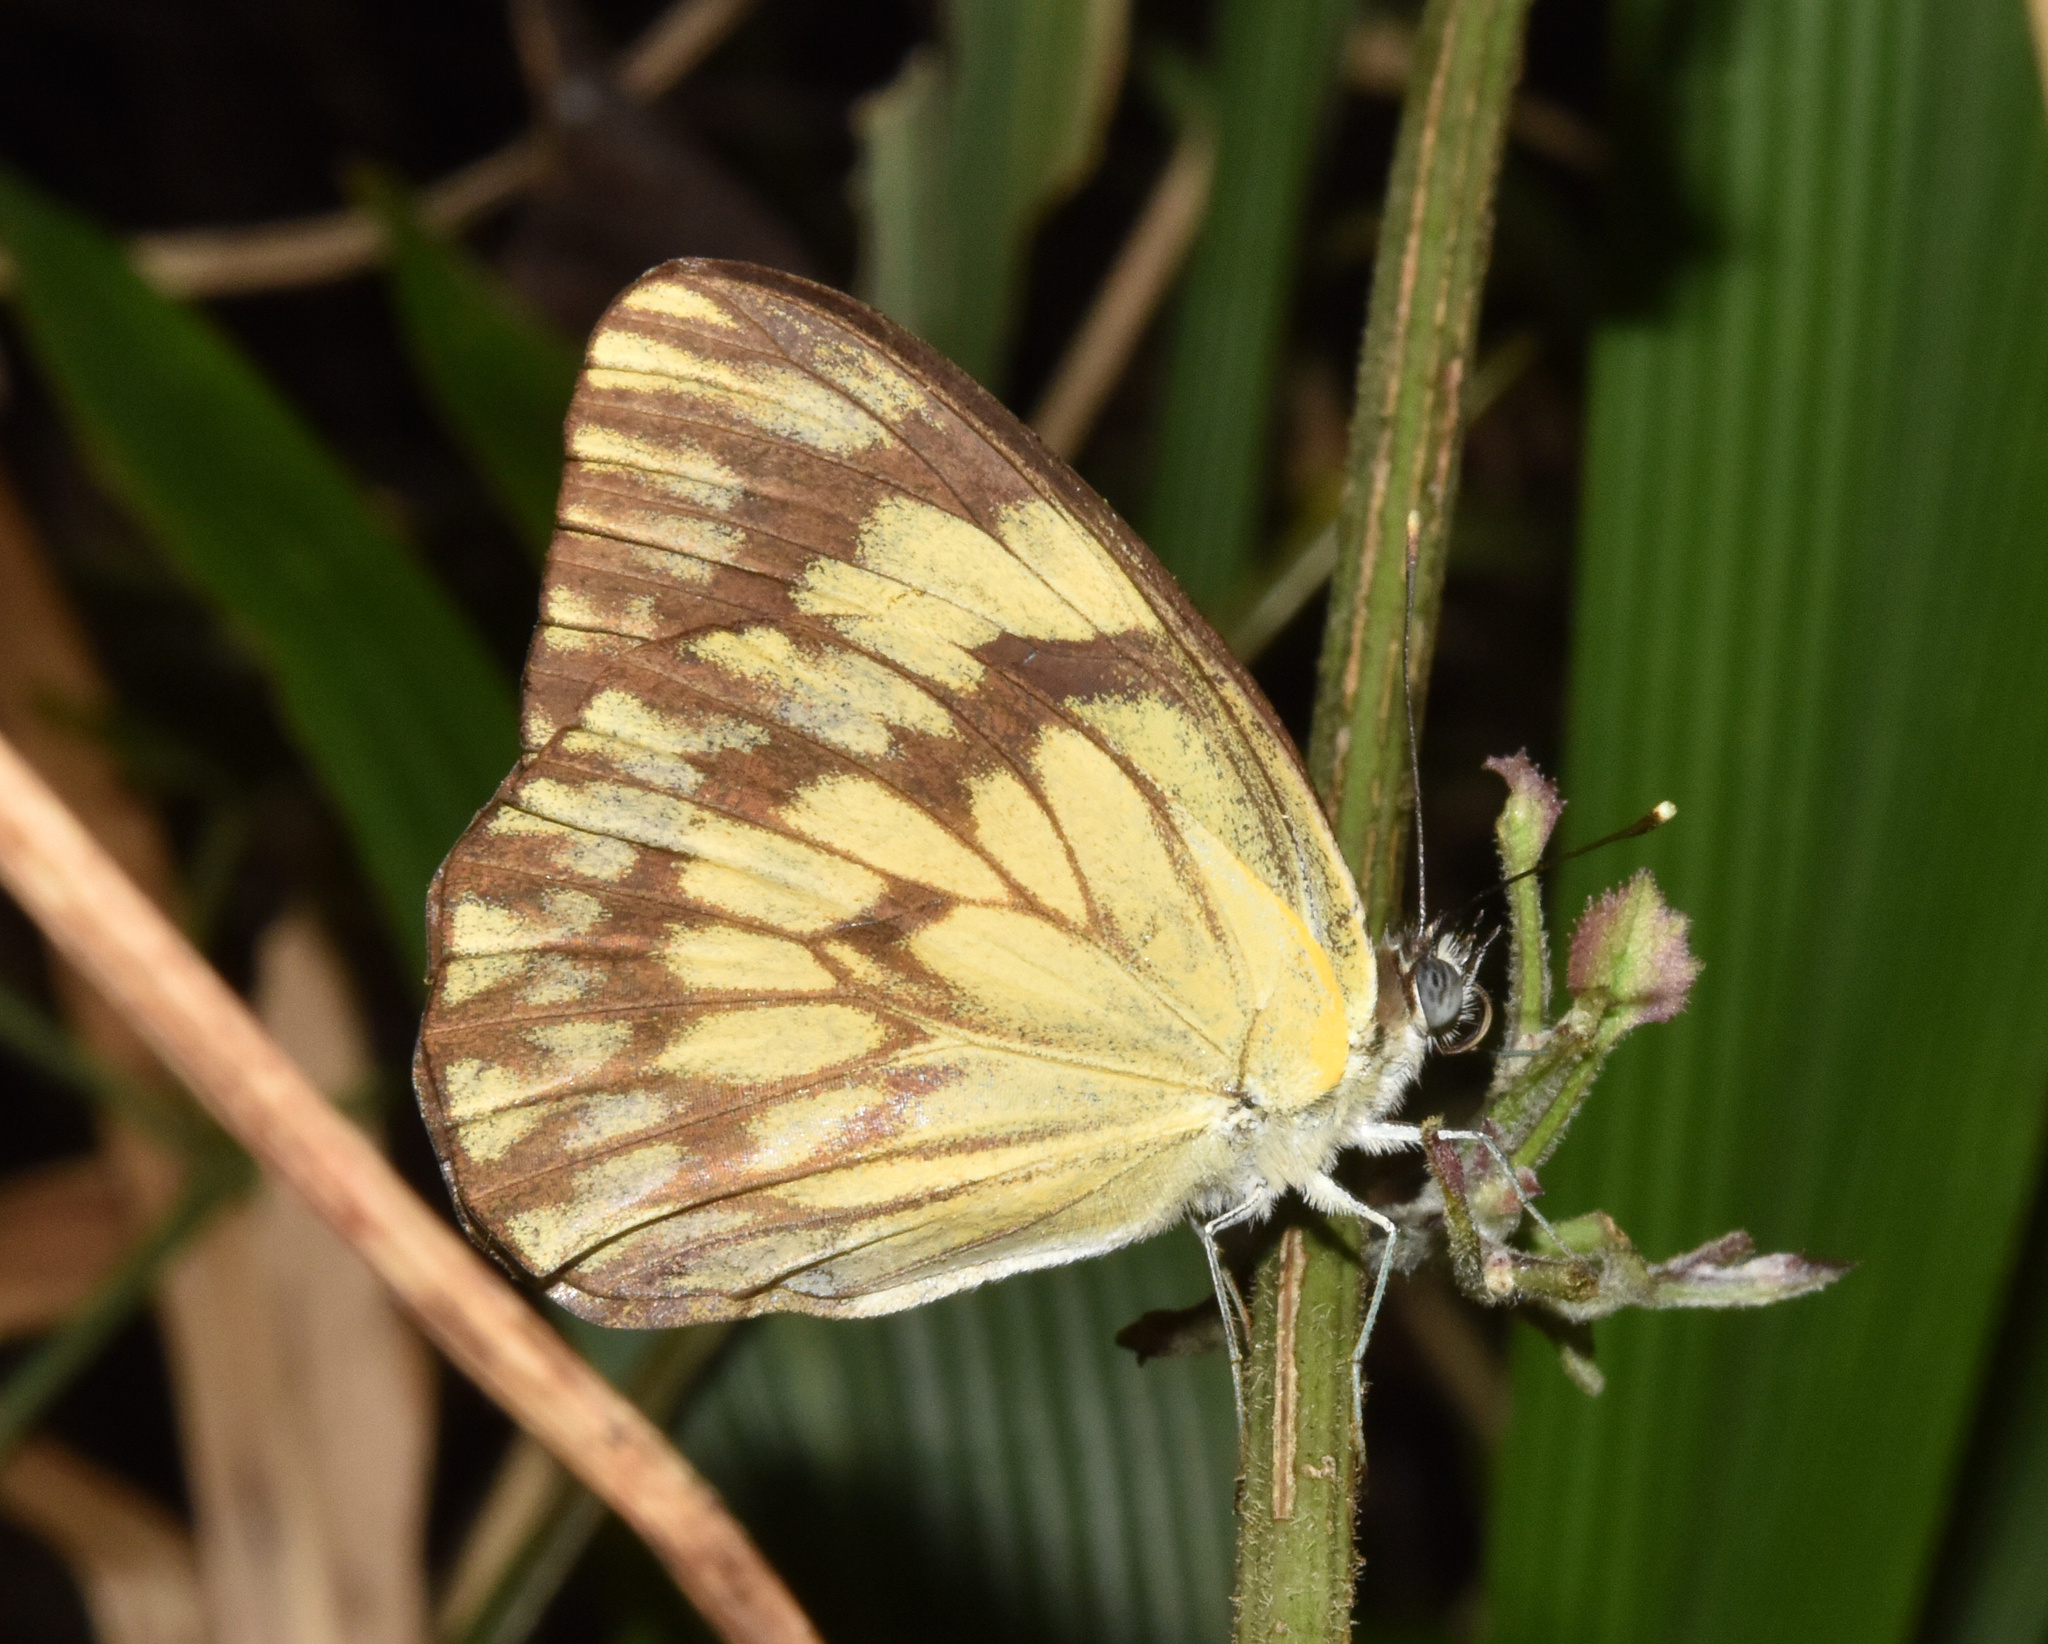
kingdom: Animalia
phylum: Arthropoda
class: Insecta
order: Lepidoptera
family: Pieridae
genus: Belenois
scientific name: Belenois gidica
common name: Pointed caper white
